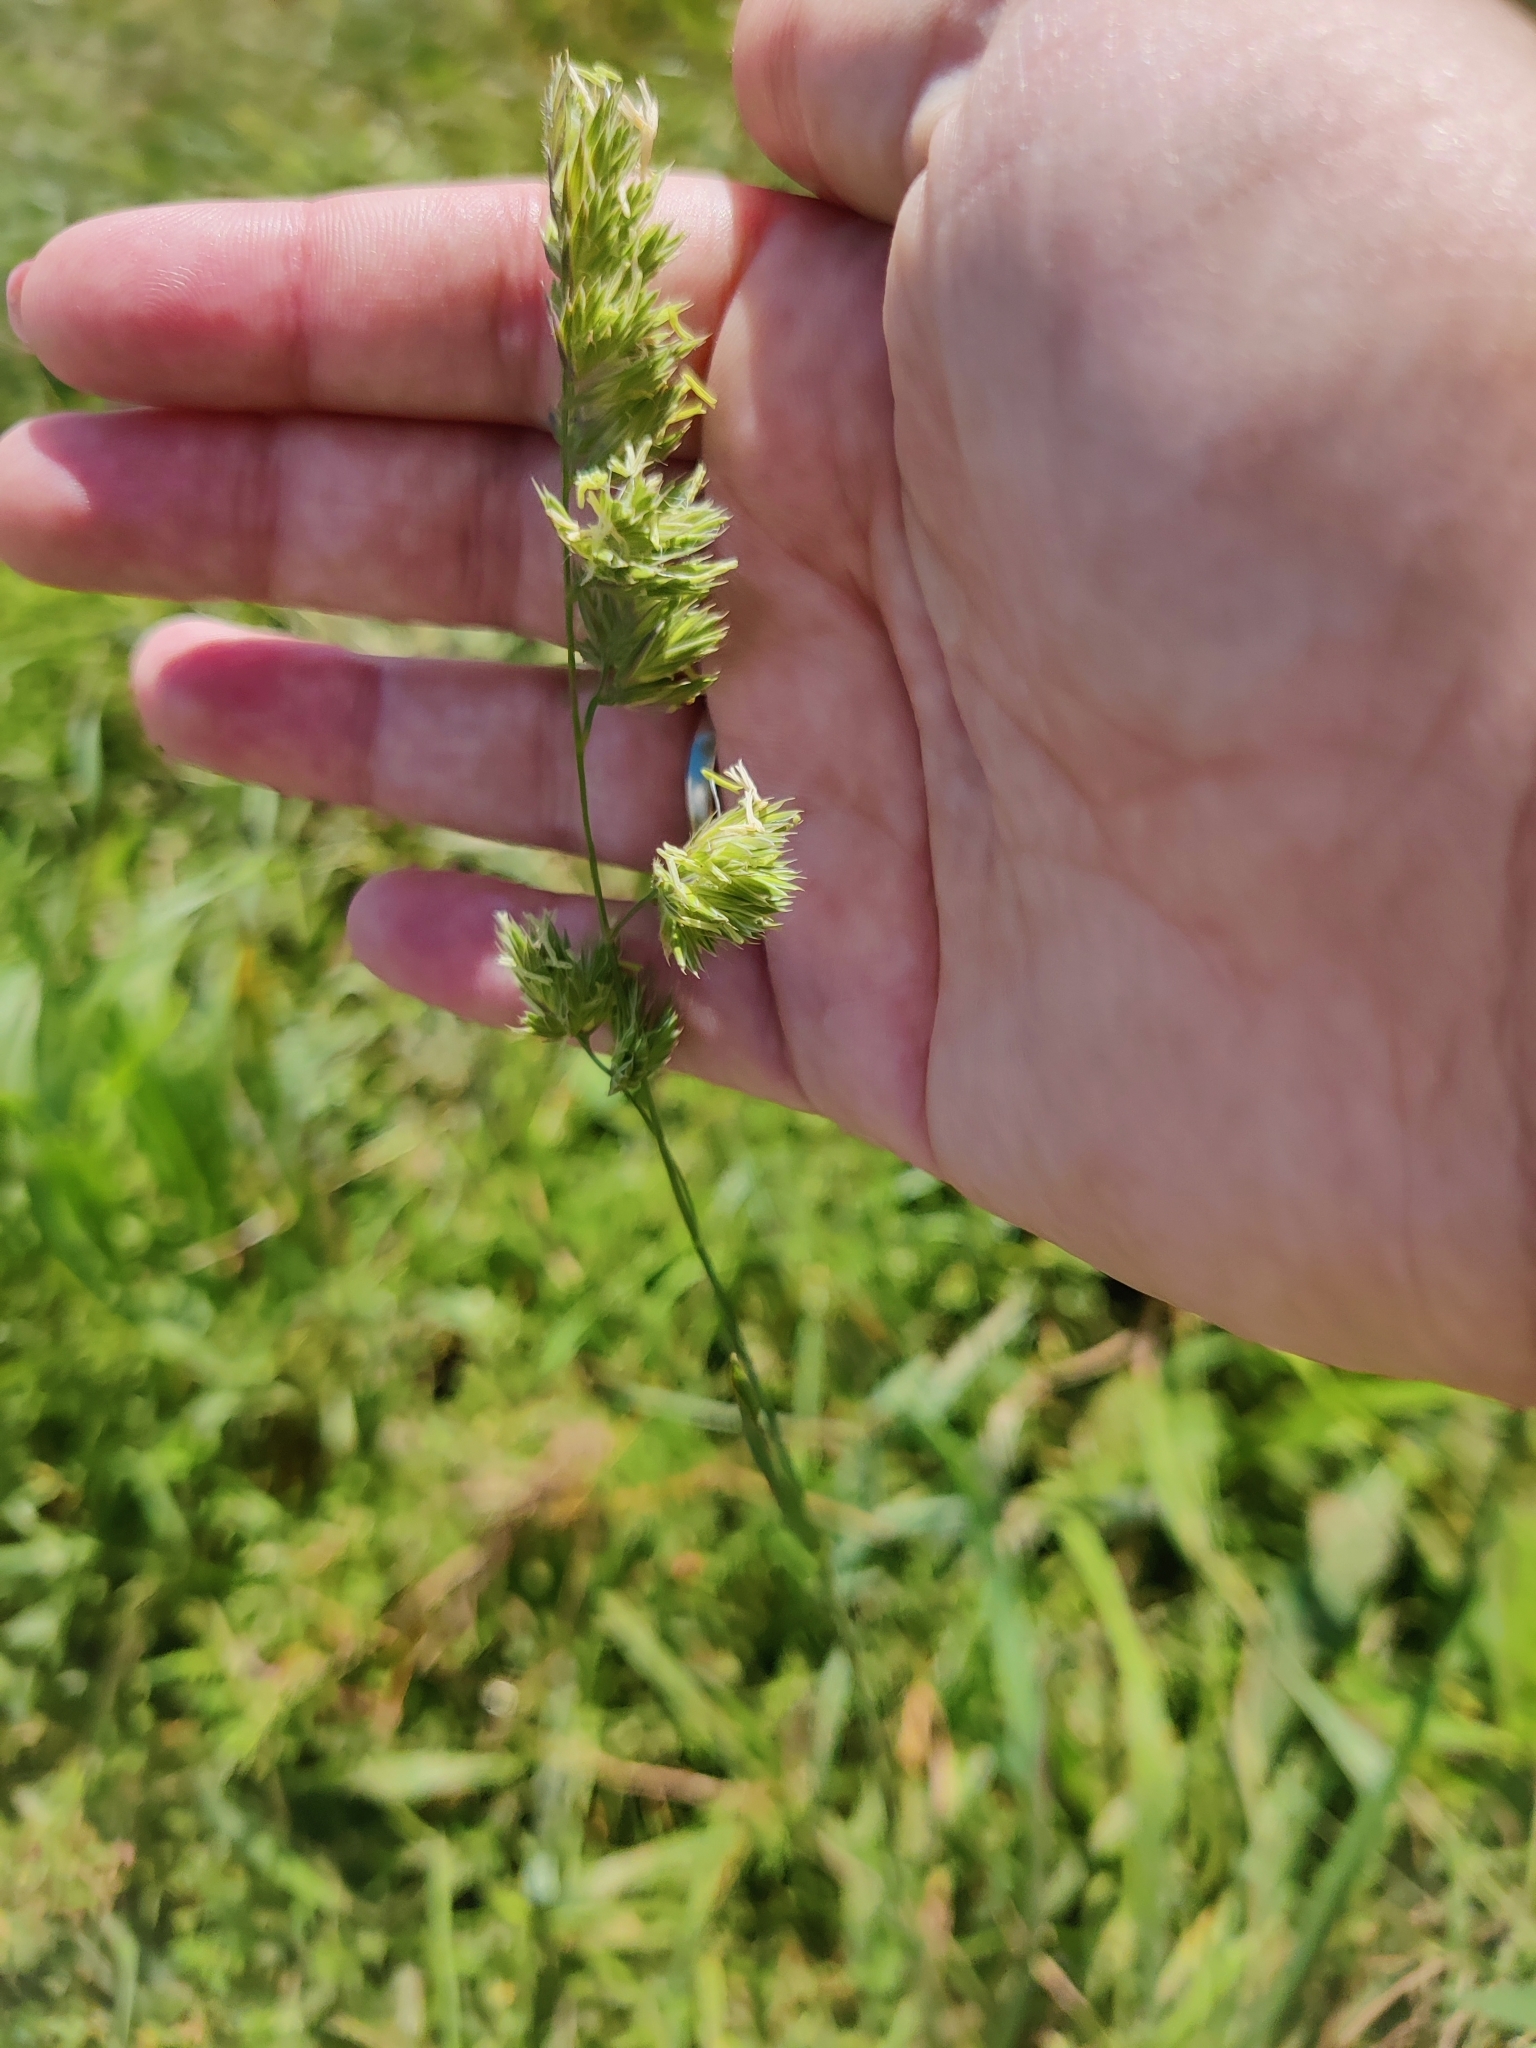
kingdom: Plantae
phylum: Tracheophyta
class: Liliopsida
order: Poales
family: Poaceae
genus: Dactylis
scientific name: Dactylis glomerata
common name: Orchardgrass
